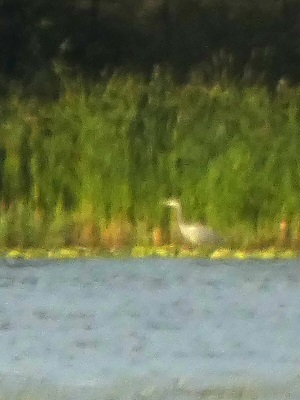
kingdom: Animalia
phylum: Chordata
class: Aves
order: Pelecaniformes
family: Ardeidae
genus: Ardea
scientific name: Ardea cinerea
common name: Grey heron
